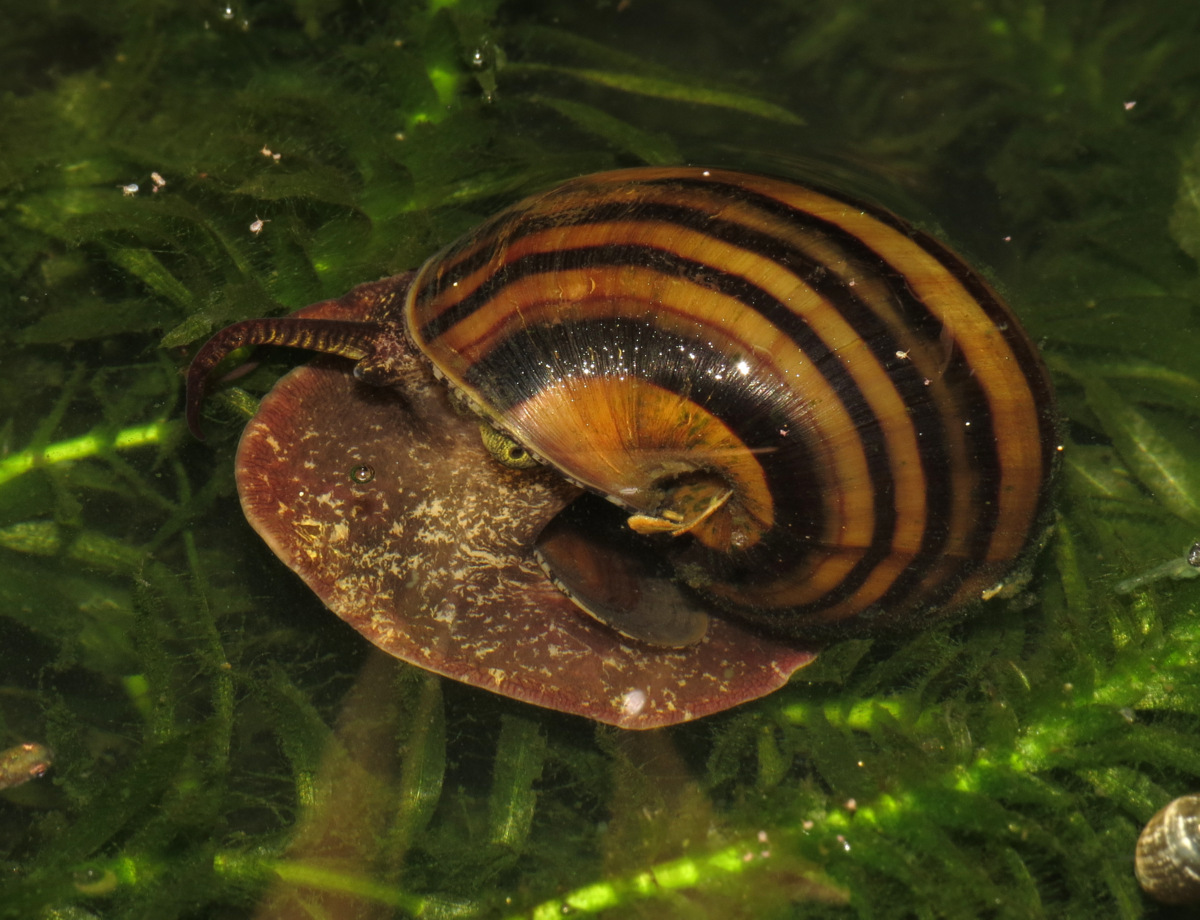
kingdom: Animalia
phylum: Mollusca
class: Gastropoda
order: Architaenioglossa
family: Ampullariidae
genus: Pomacea
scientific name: Pomacea glauca
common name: Apple snail
